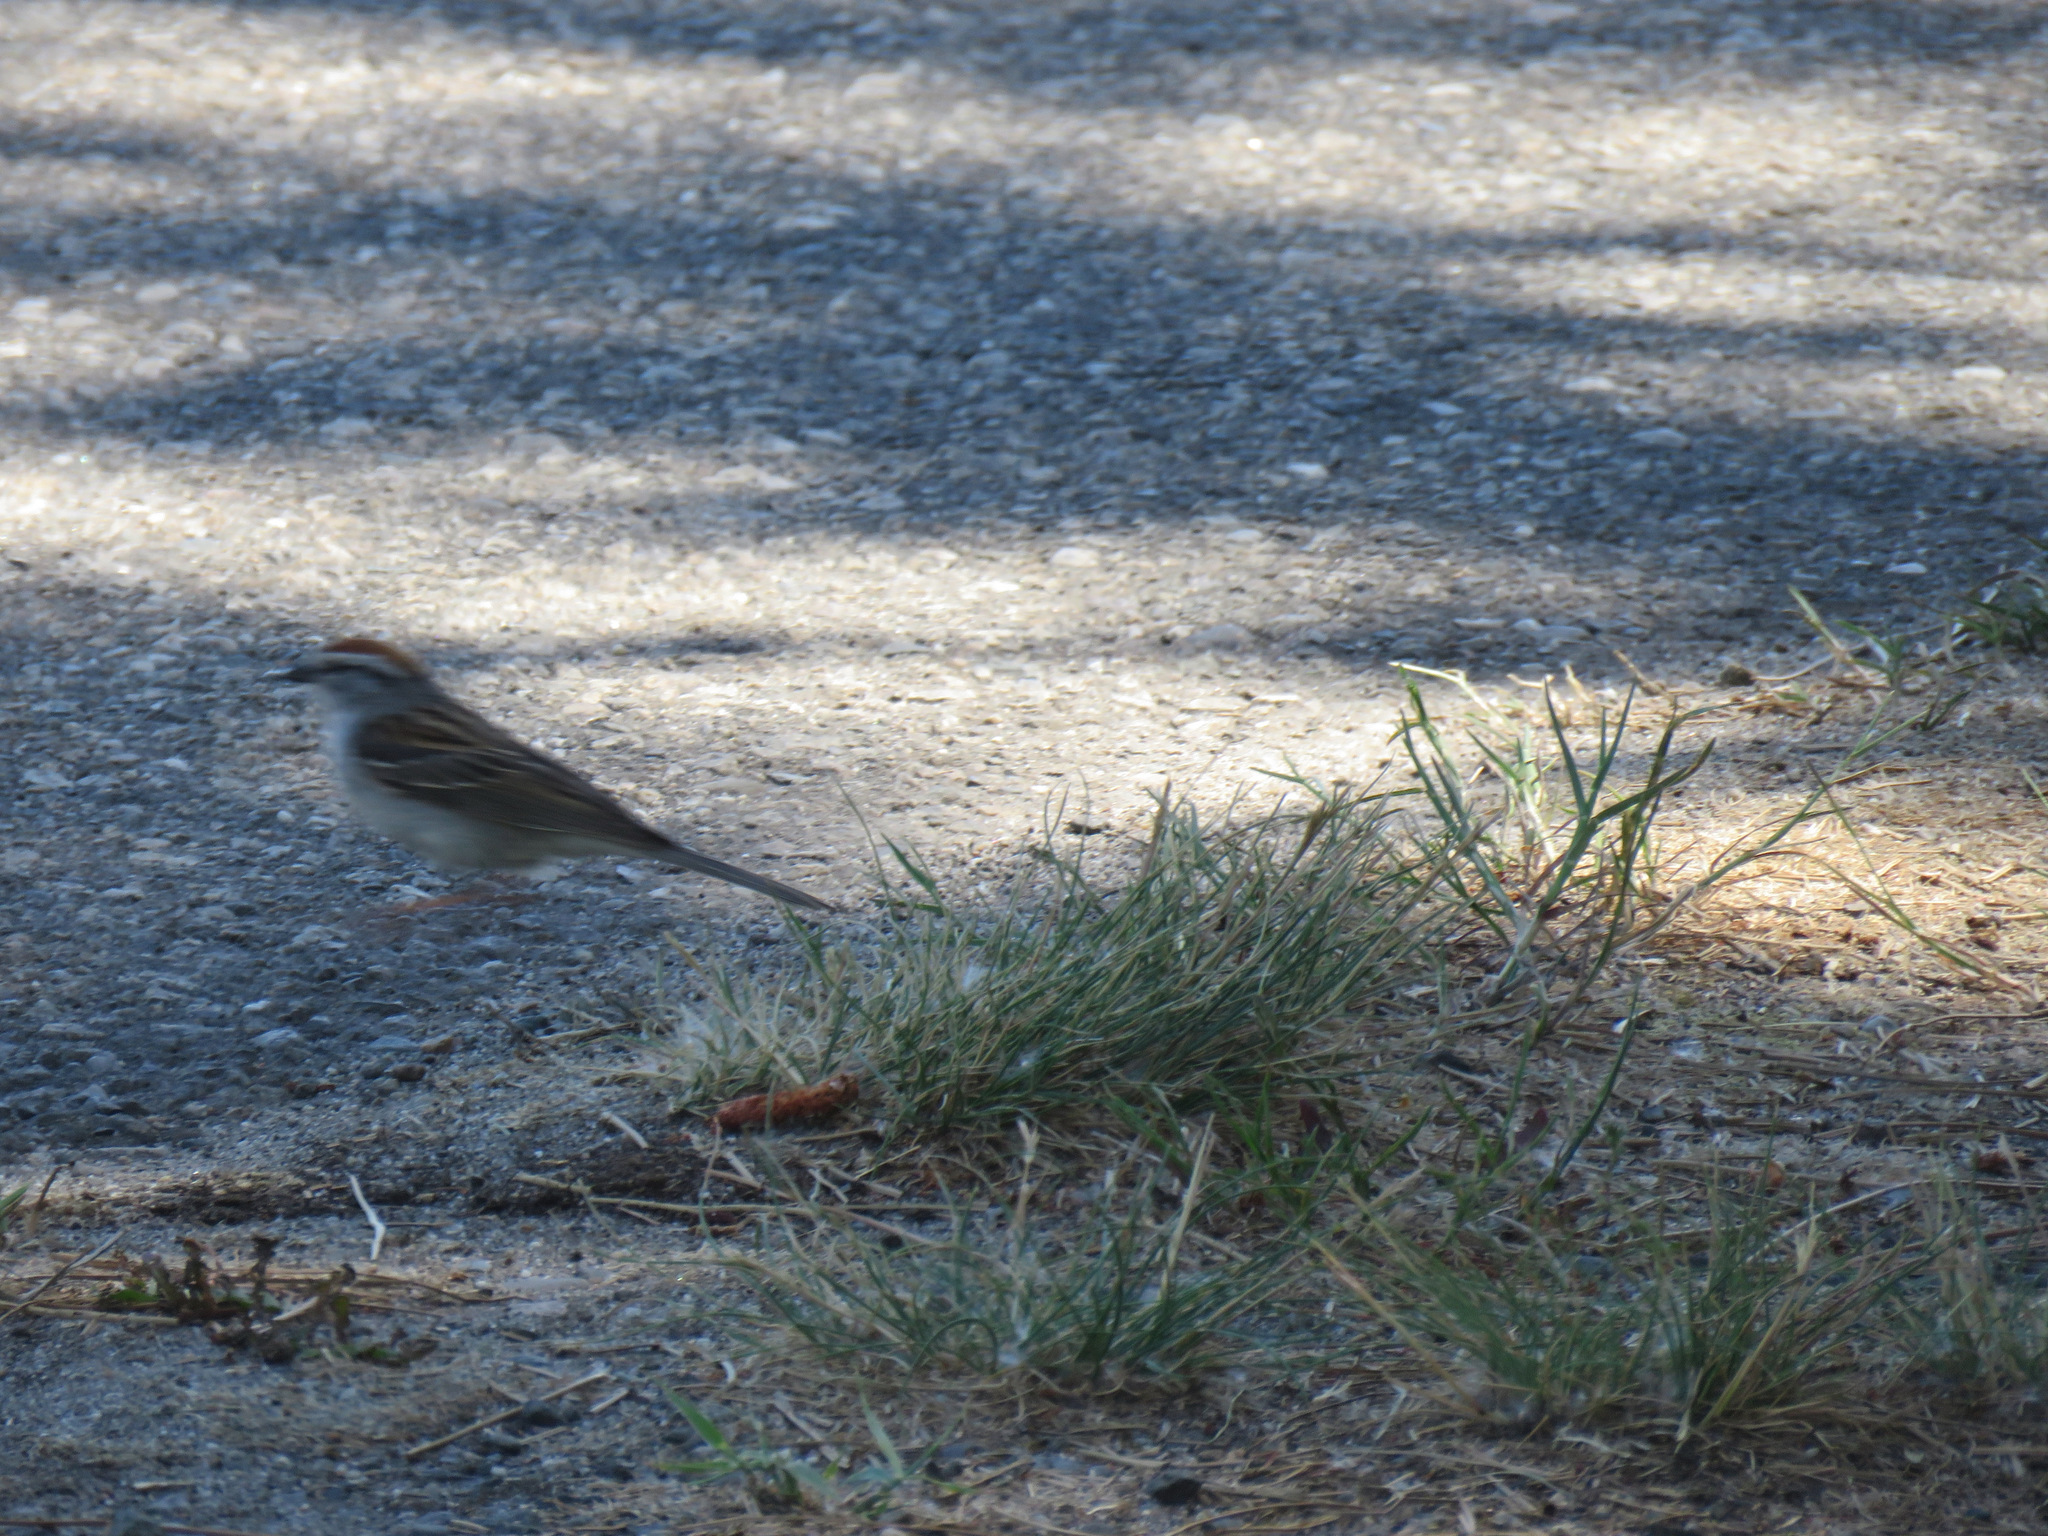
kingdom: Animalia
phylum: Chordata
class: Aves
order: Passeriformes
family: Passerellidae
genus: Spizella
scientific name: Spizella passerina
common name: Chipping sparrow
